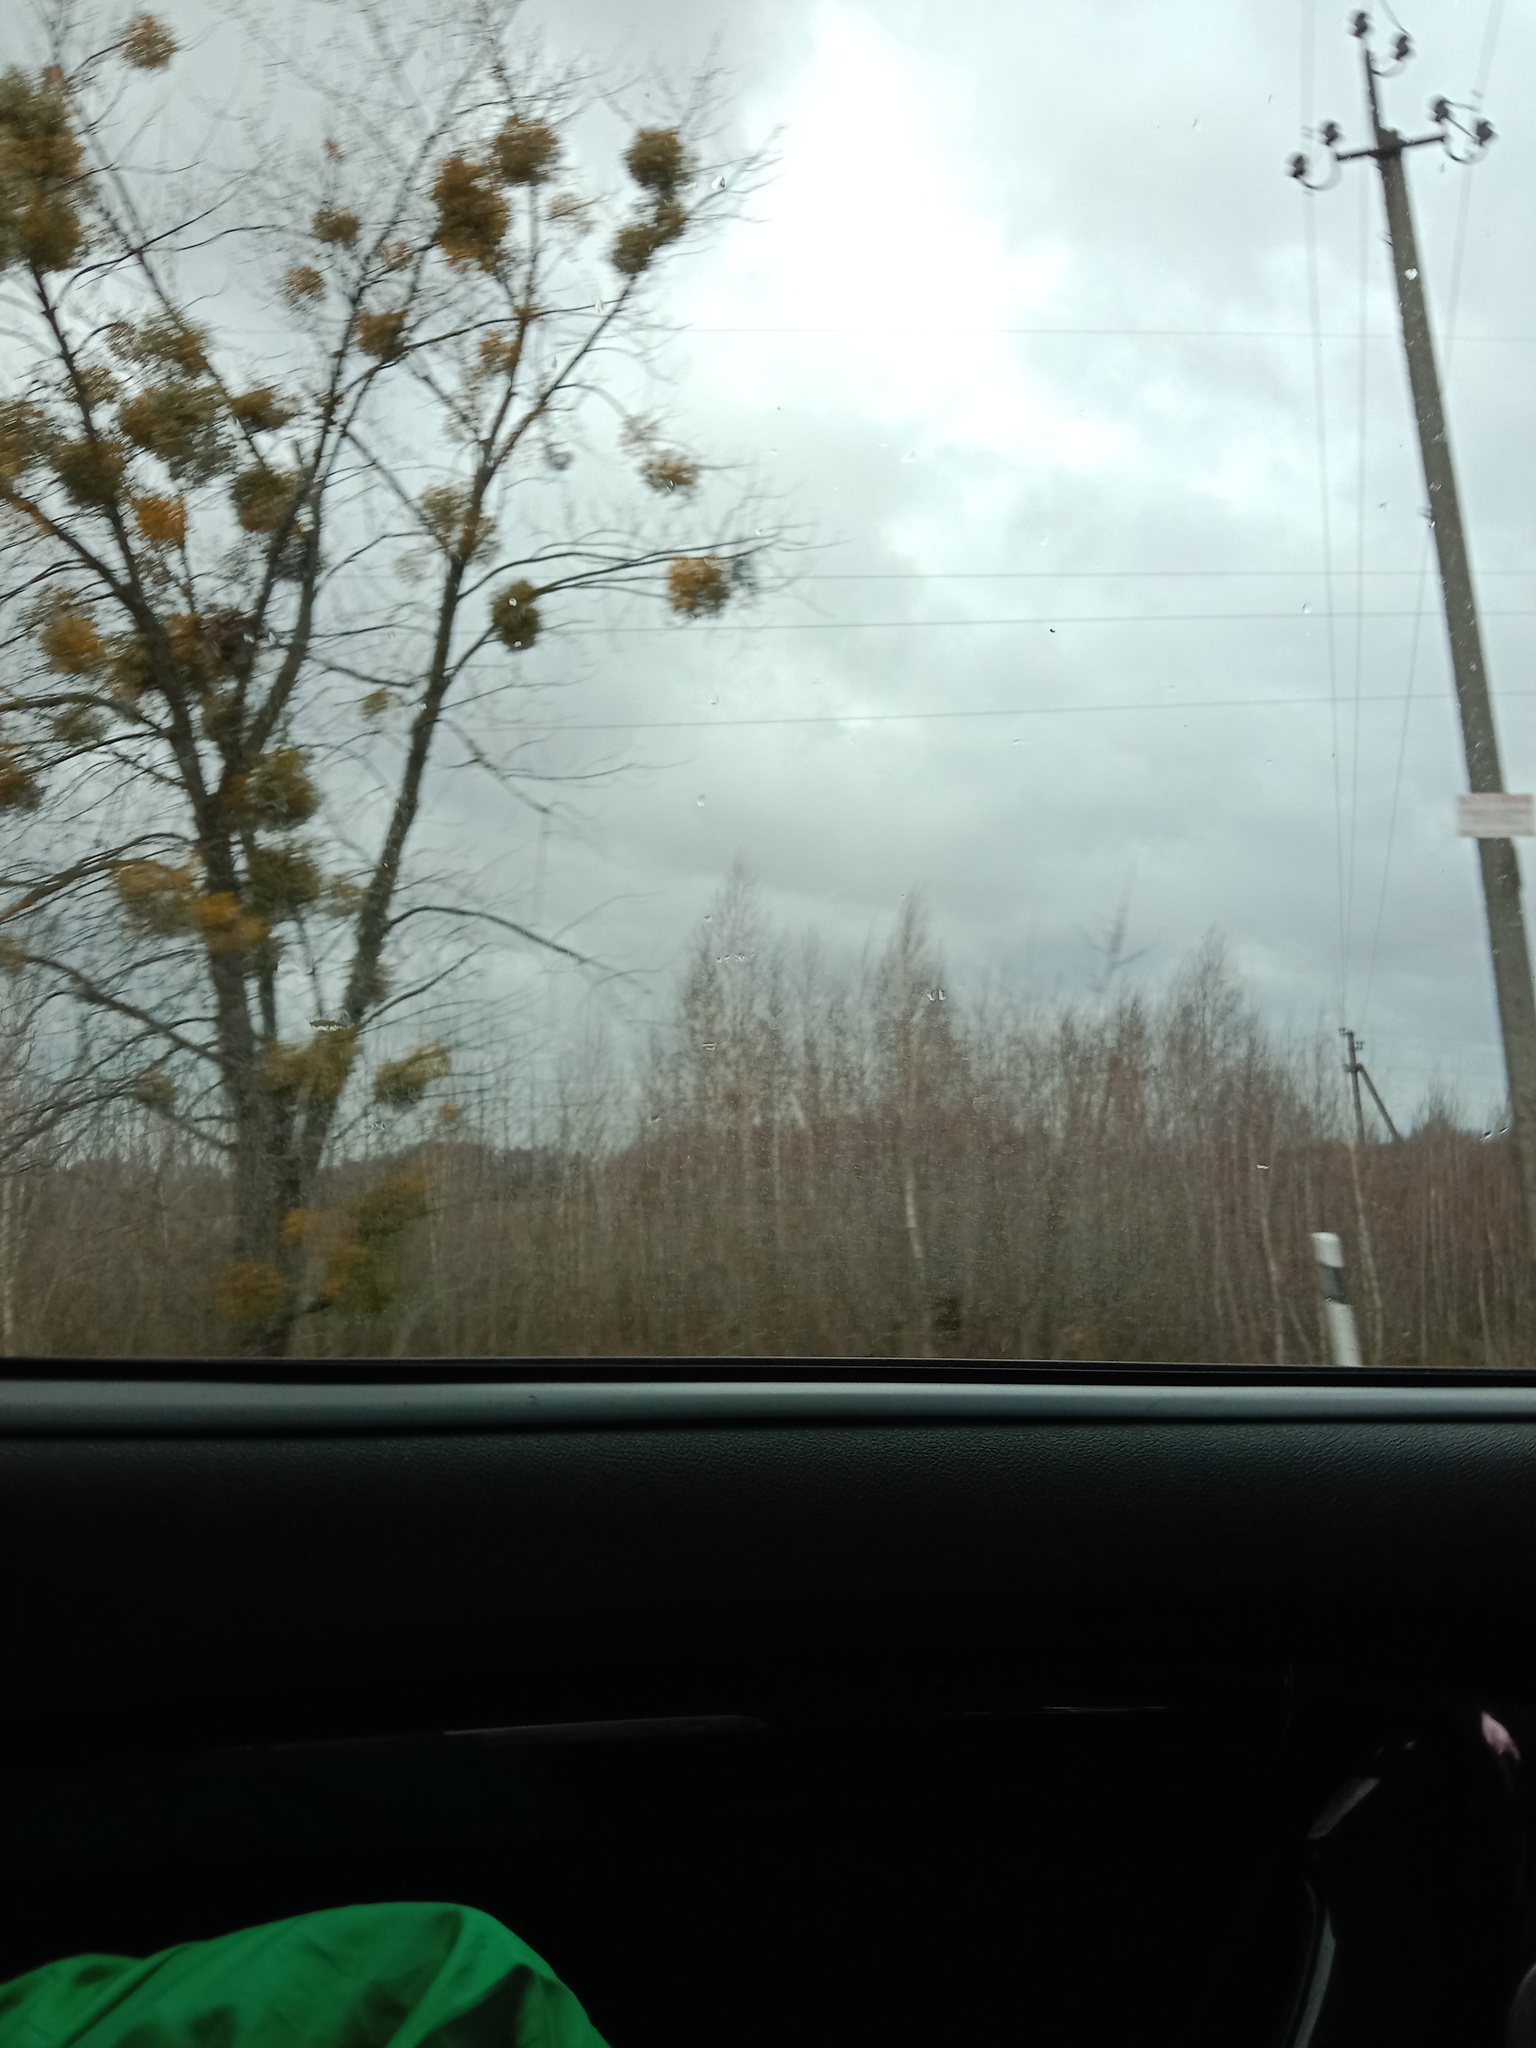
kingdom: Plantae
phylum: Tracheophyta
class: Magnoliopsida
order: Santalales
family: Viscaceae
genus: Viscum
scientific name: Viscum album
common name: Mistletoe
